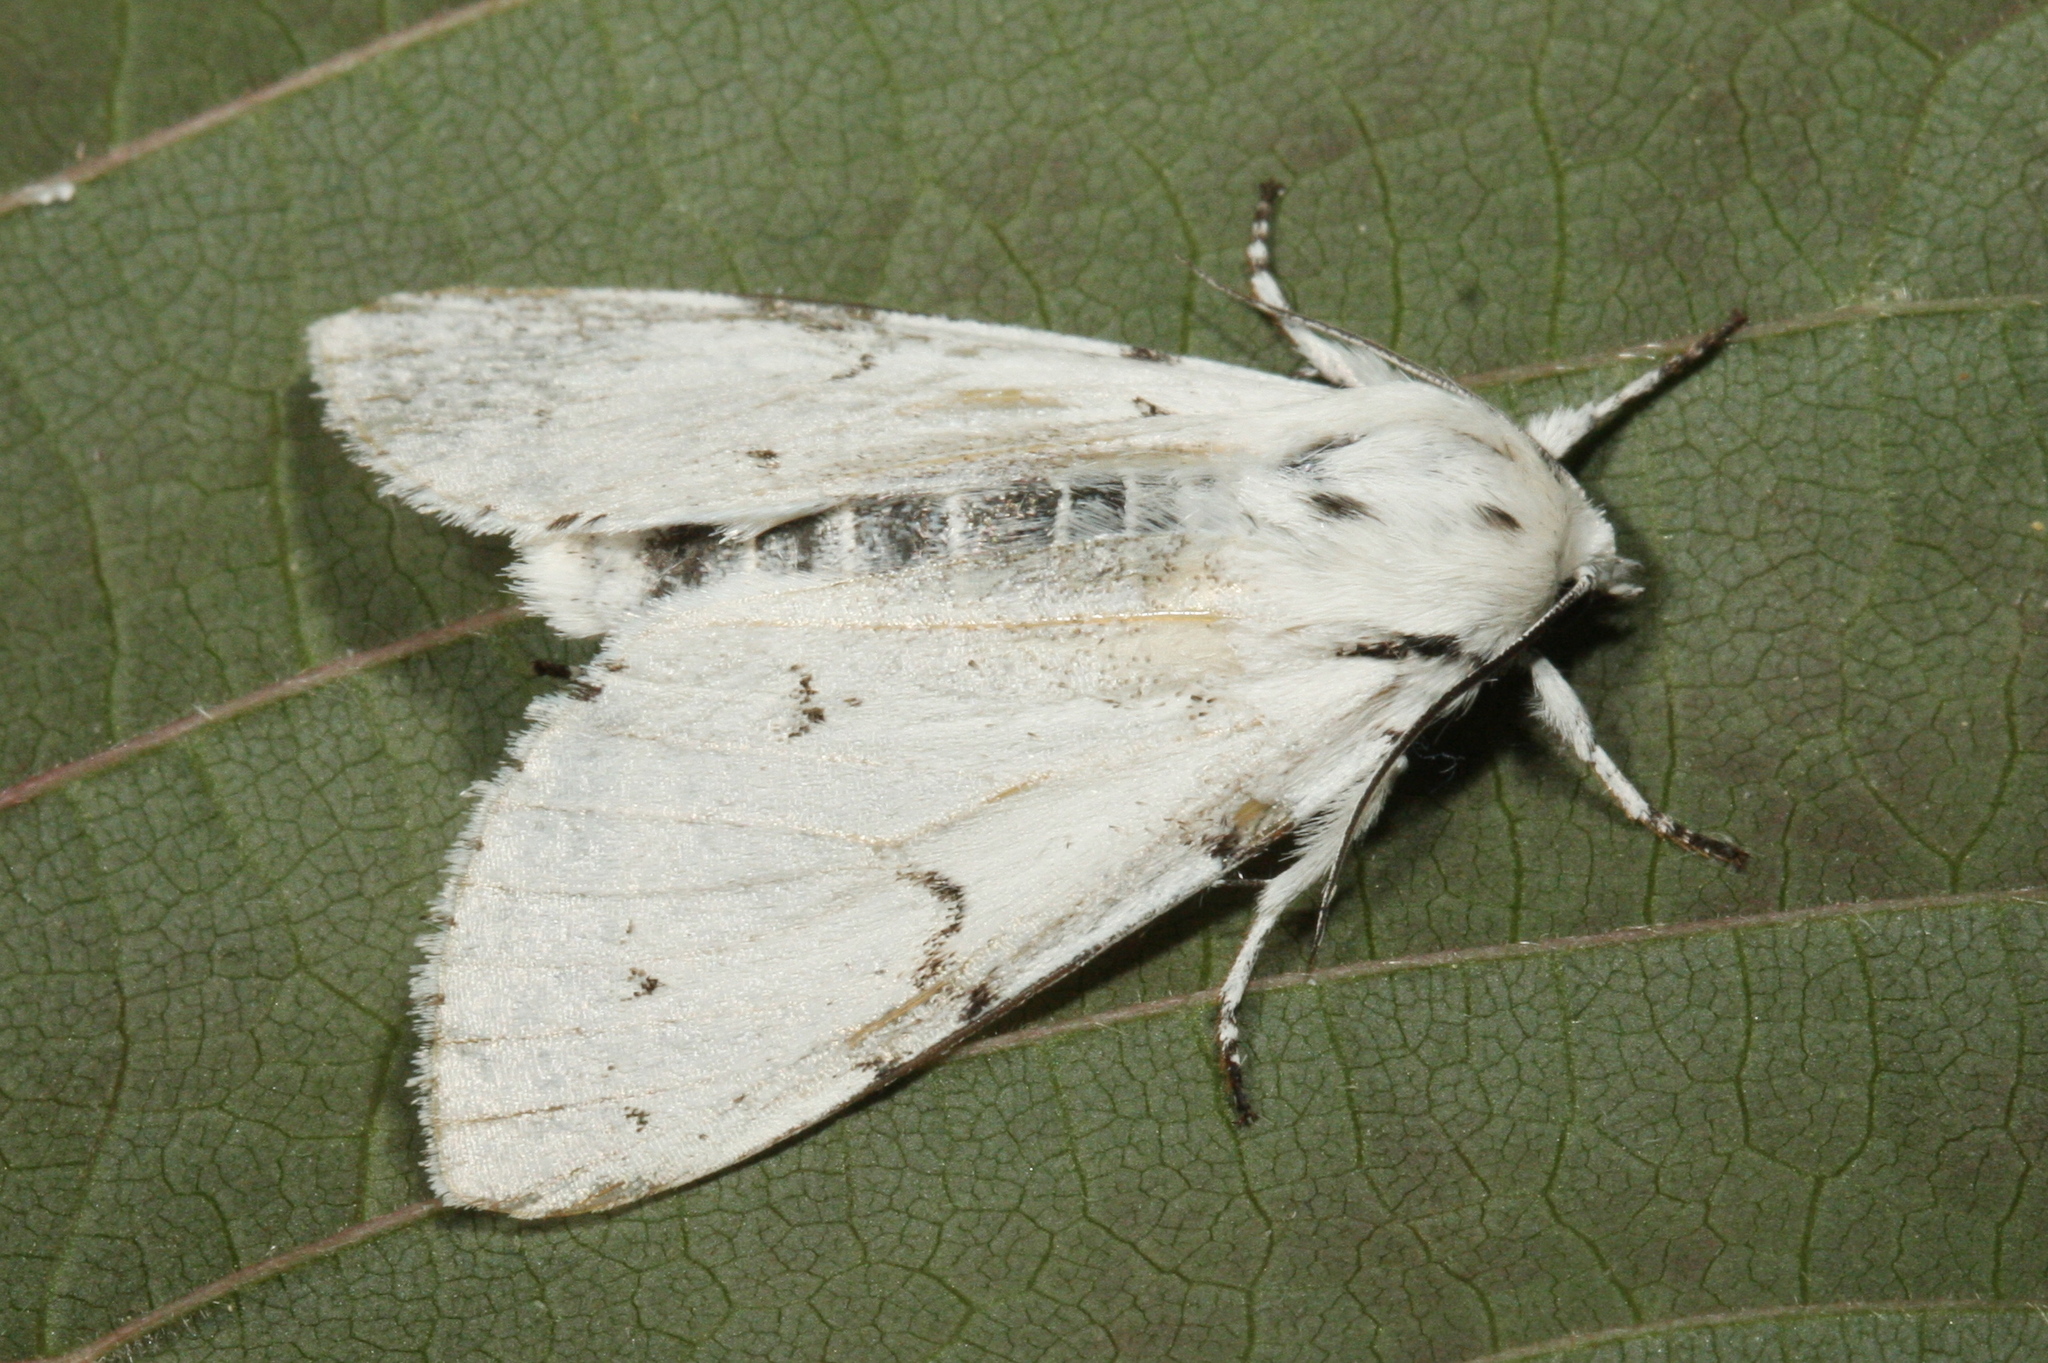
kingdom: Animalia
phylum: Arthropoda
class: Insecta
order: Lepidoptera
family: Noctuidae
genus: Acronicta
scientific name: Acronicta leporina
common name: Miller
